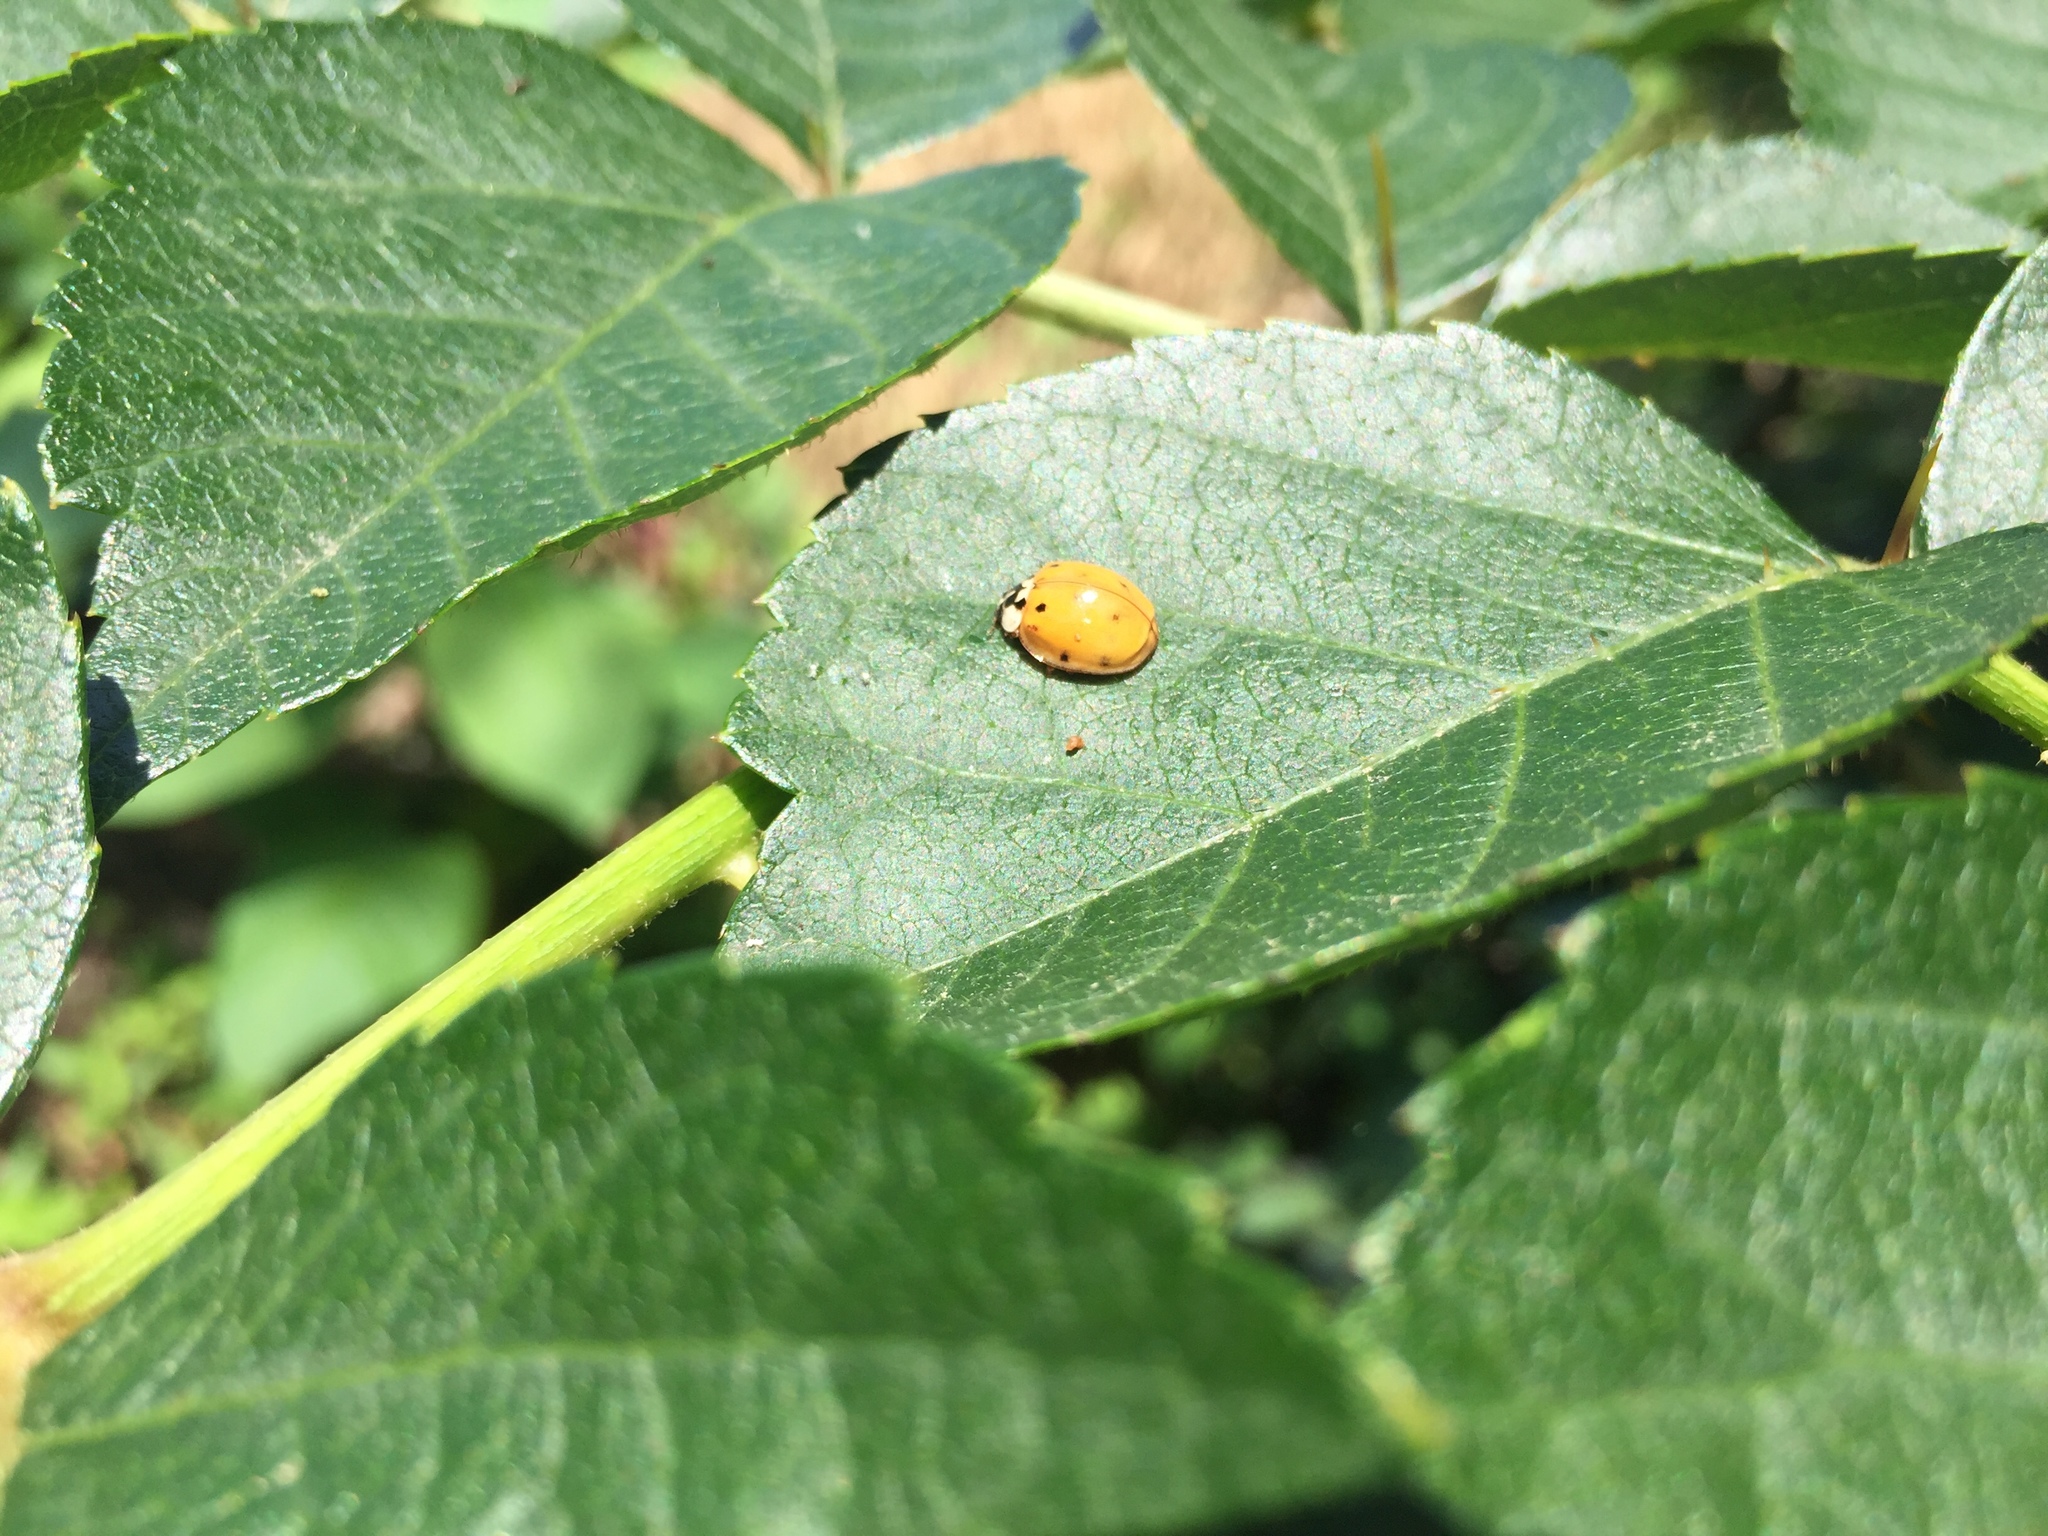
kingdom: Animalia
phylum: Arthropoda
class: Insecta
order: Coleoptera
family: Coccinellidae
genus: Harmonia
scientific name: Harmonia axyridis
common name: Harlequin ladybird
